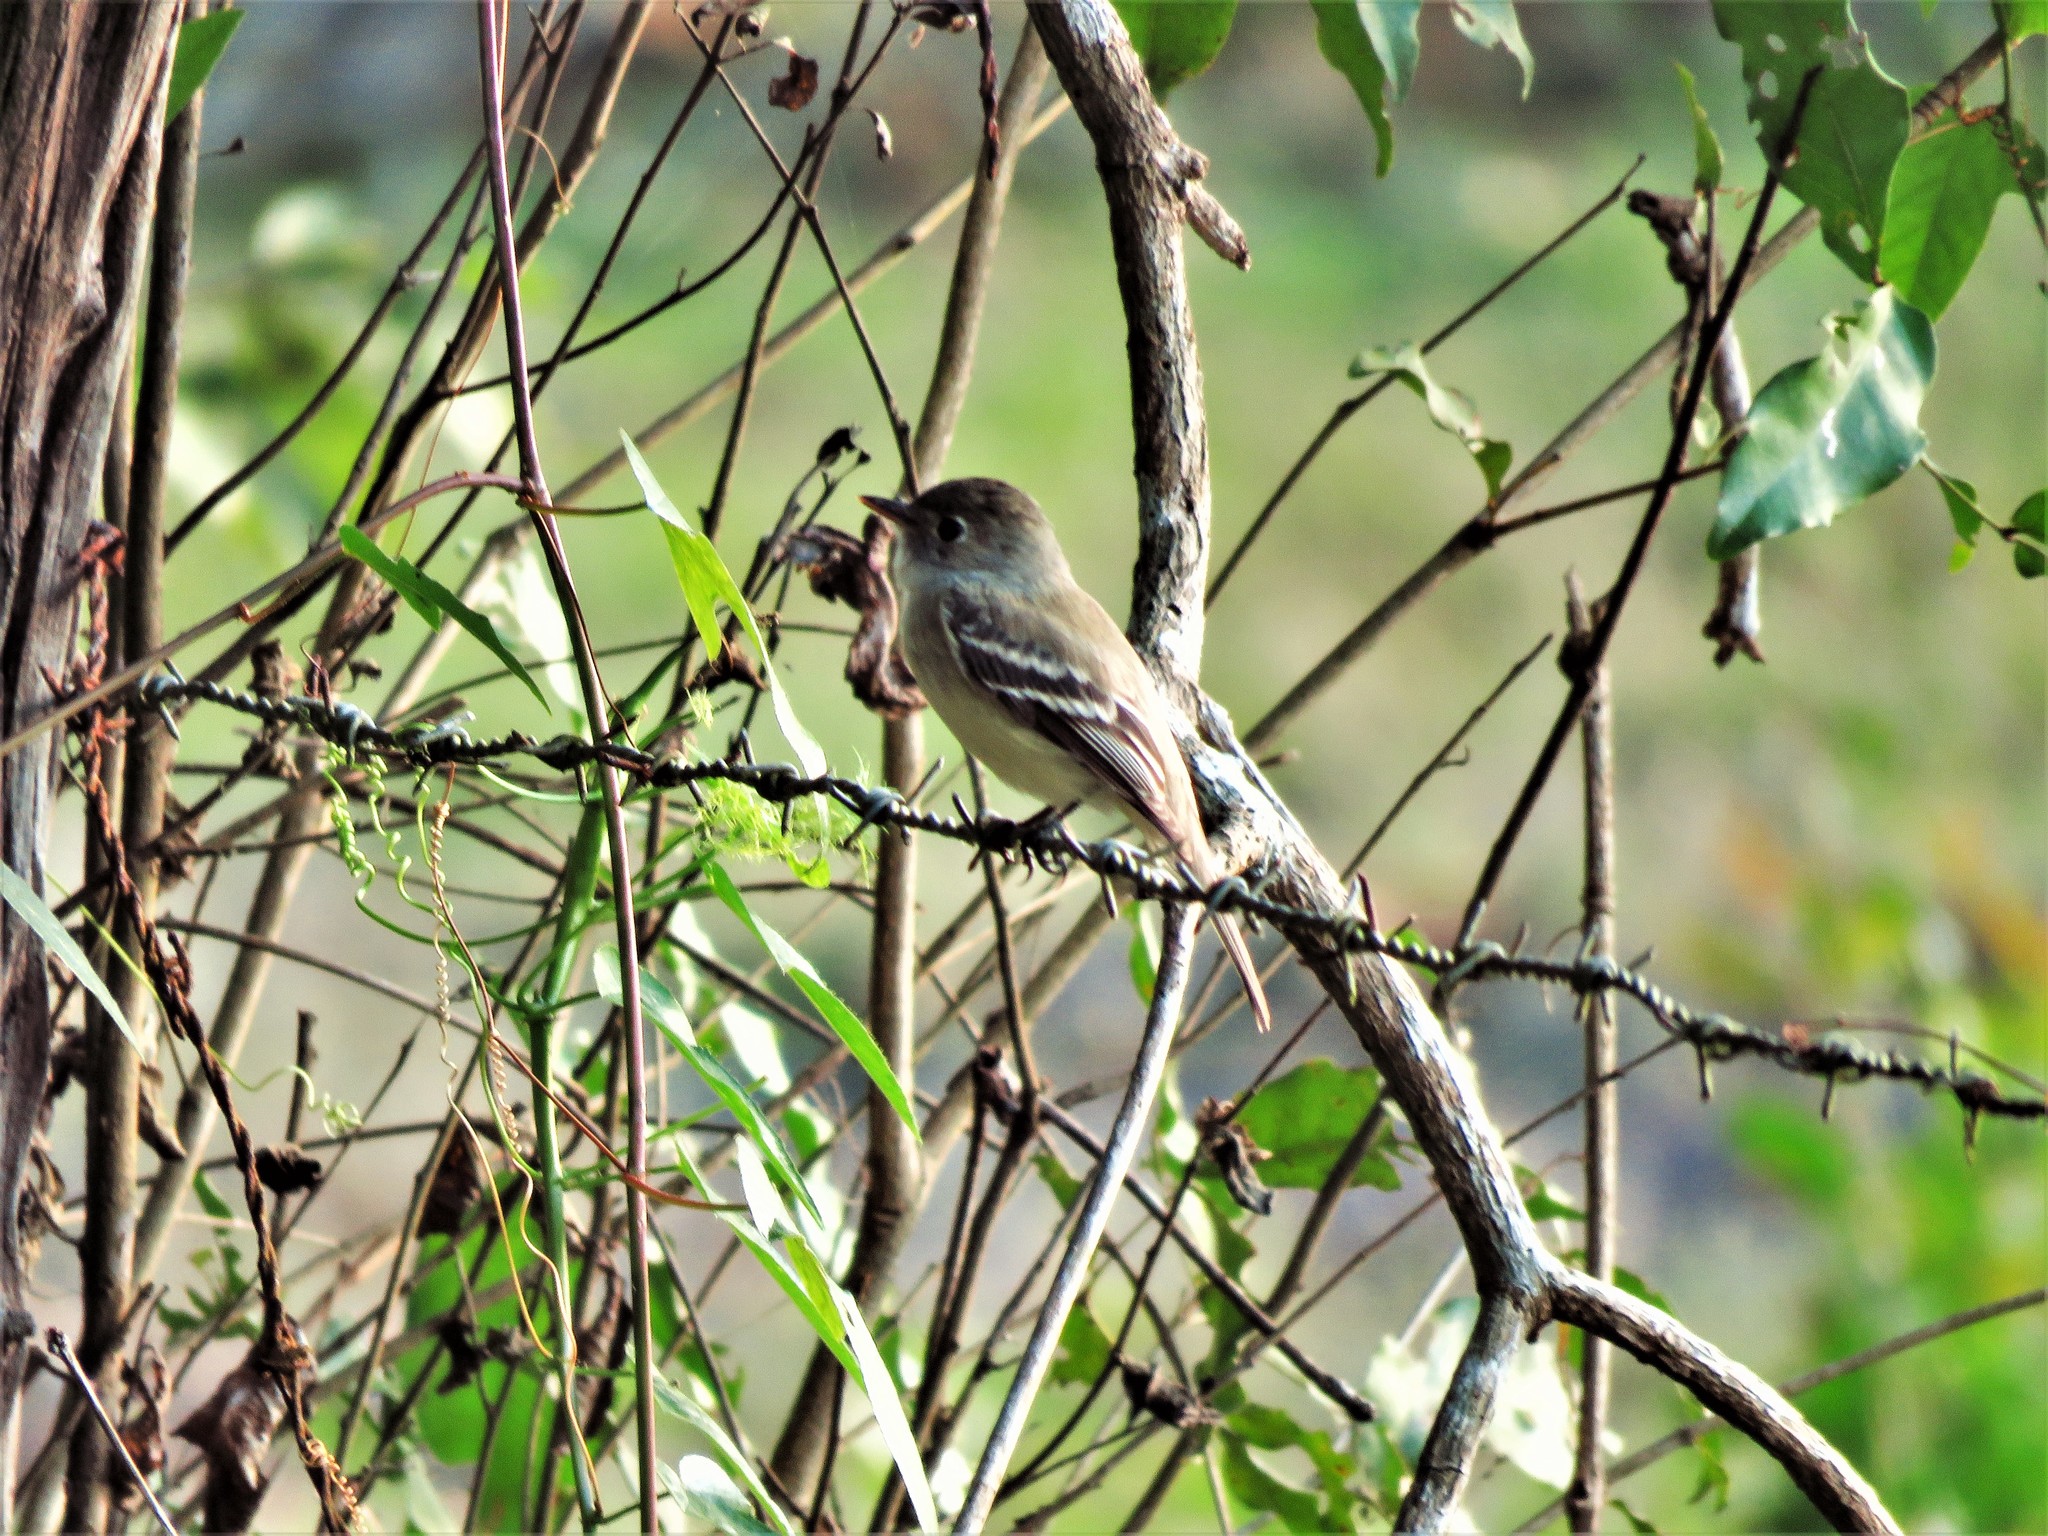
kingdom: Animalia
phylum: Chordata
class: Aves
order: Passeriformes
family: Tyrannidae
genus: Empidonax
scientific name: Empidonax minimus
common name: Least flycatcher
